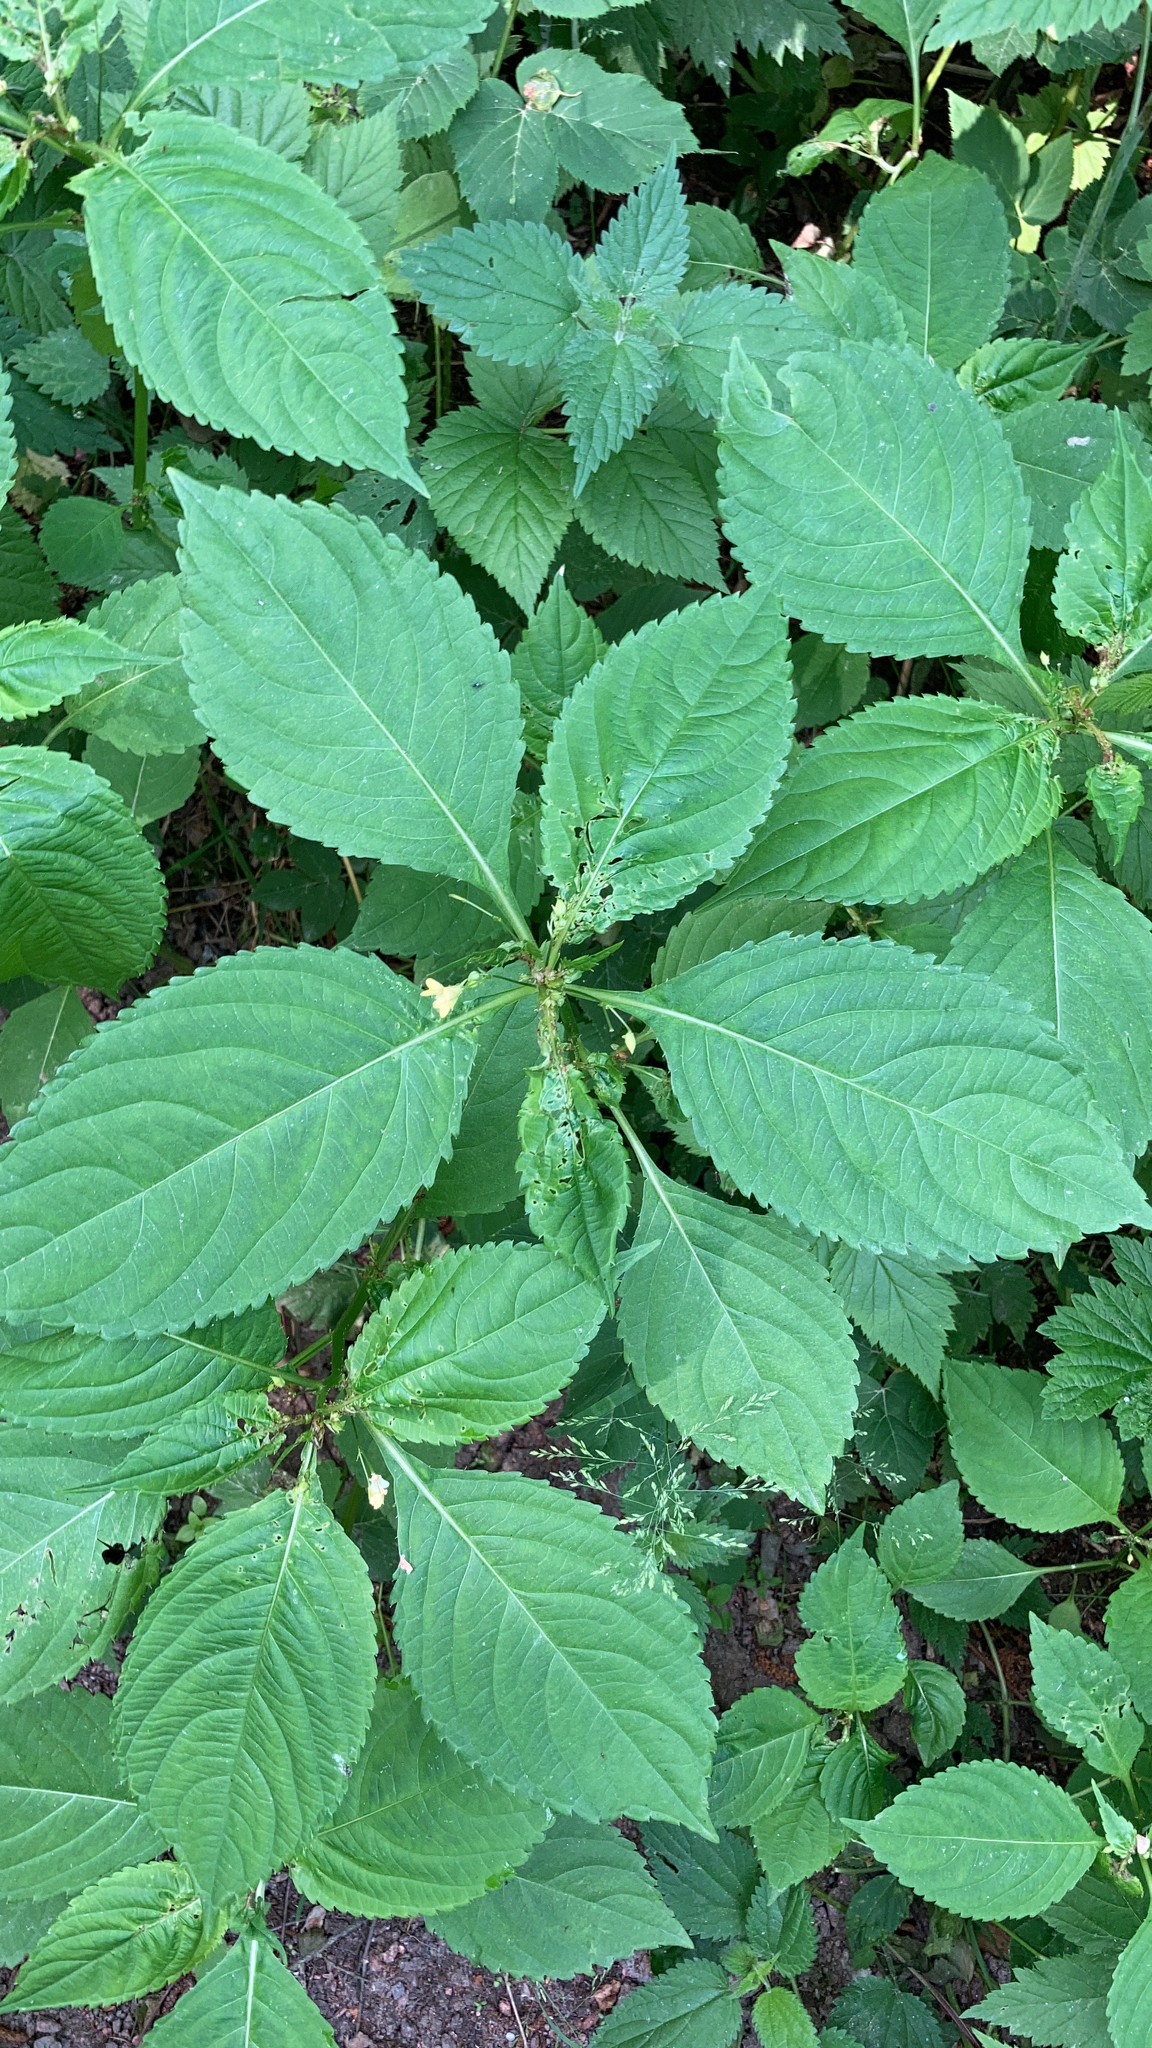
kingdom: Plantae
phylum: Tracheophyta
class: Magnoliopsida
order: Ericales
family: Balsaminaceae
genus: Impatiens
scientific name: Impatiens parviflora
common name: Small balsam
